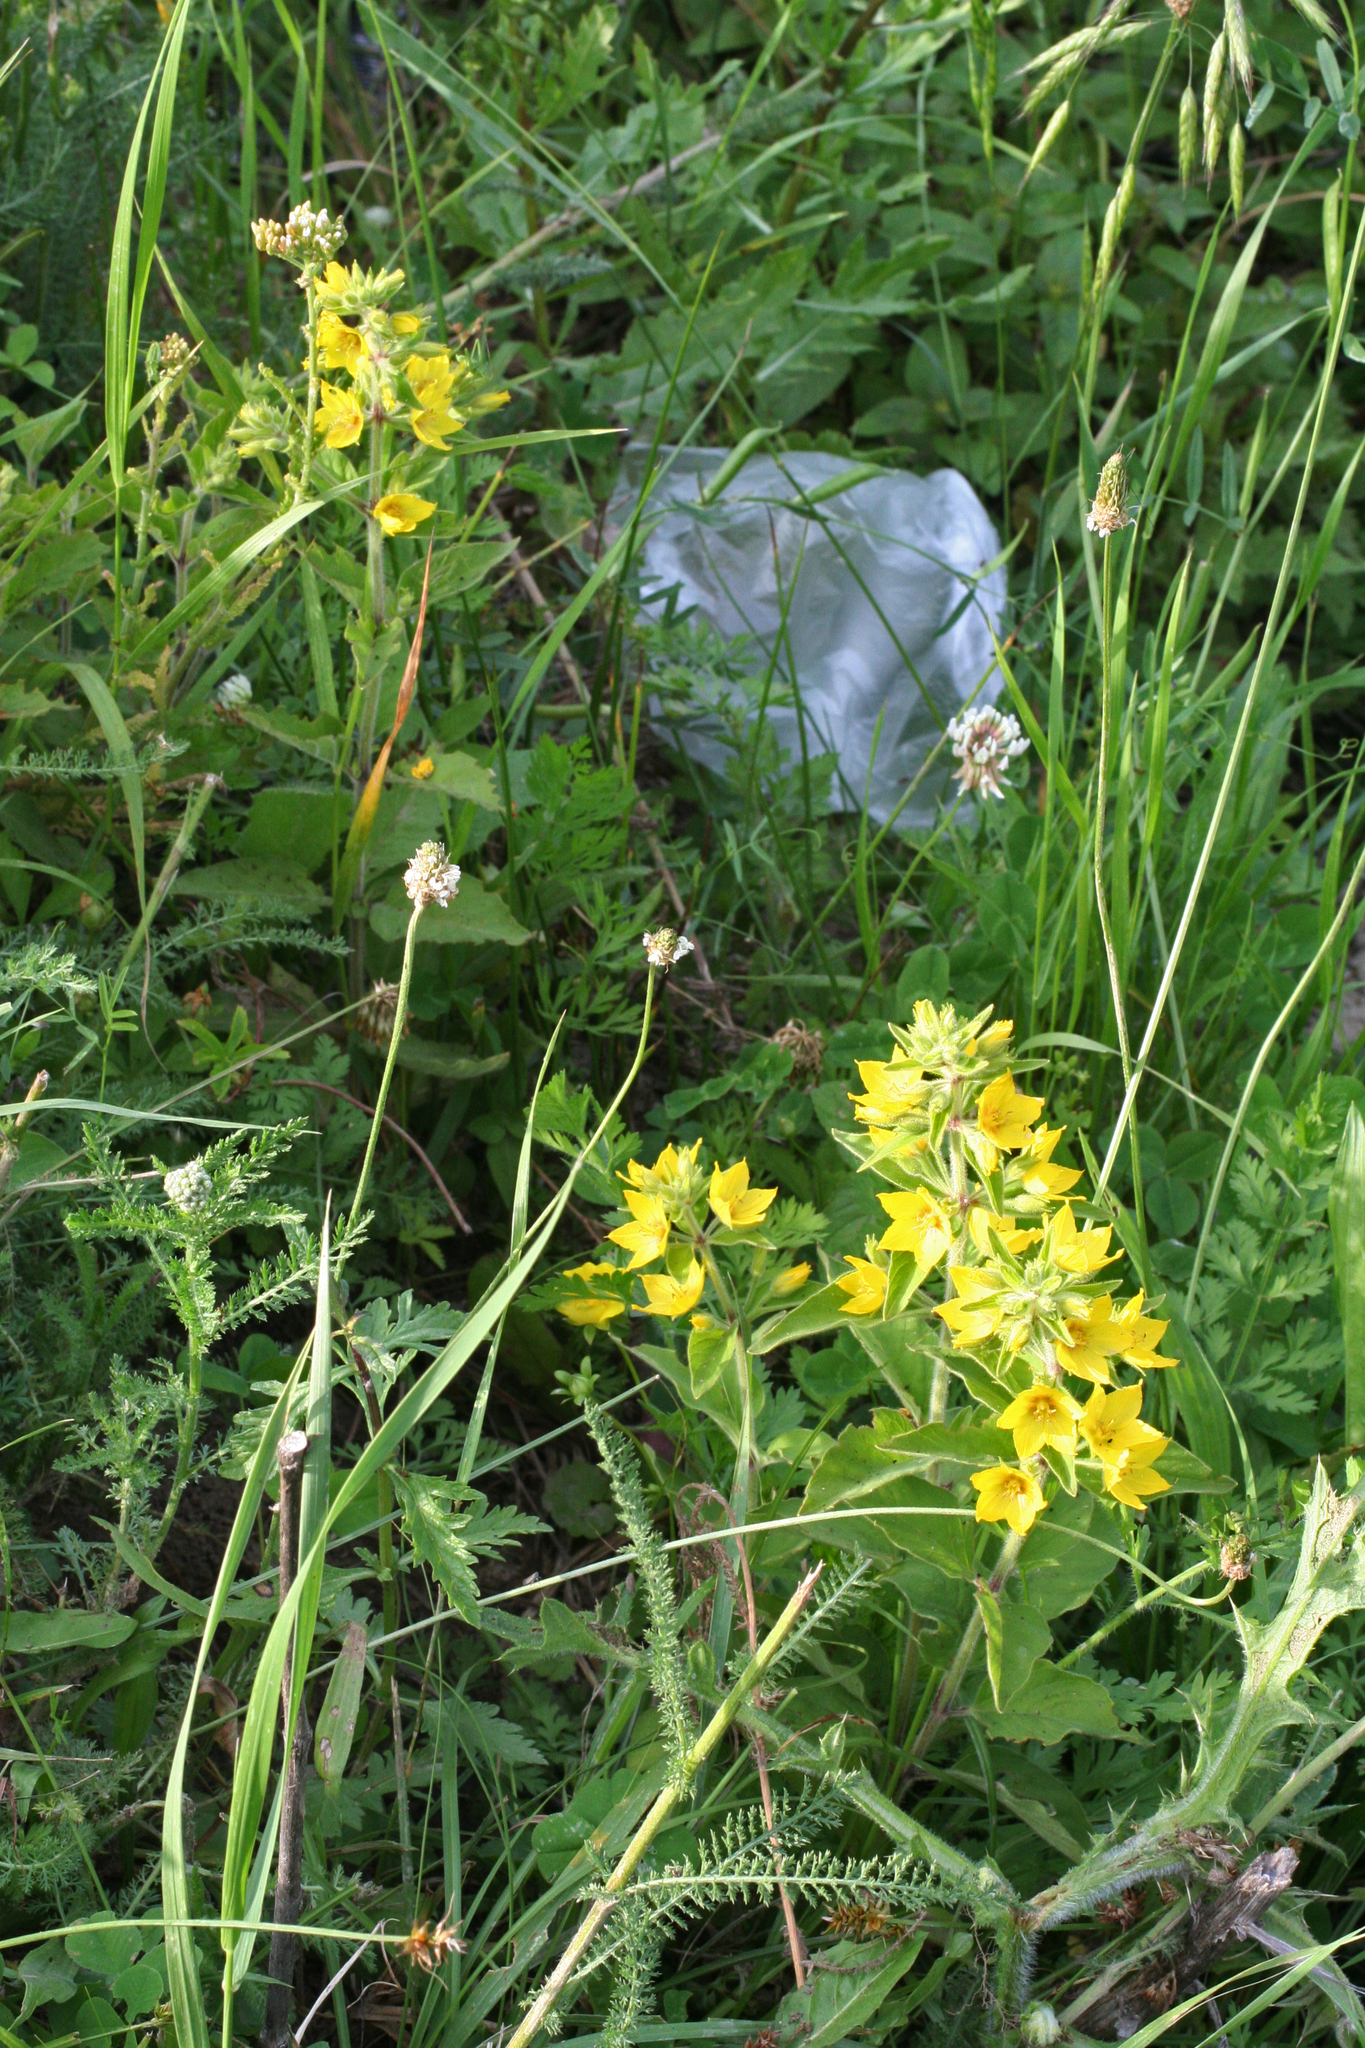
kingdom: Plantae
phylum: Tracheophyta
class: Magnoliopsida
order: Ericales
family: Primulaceae
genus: Lysimachia
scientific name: Lysimachia verticillaris
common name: Yellow loosestrife
